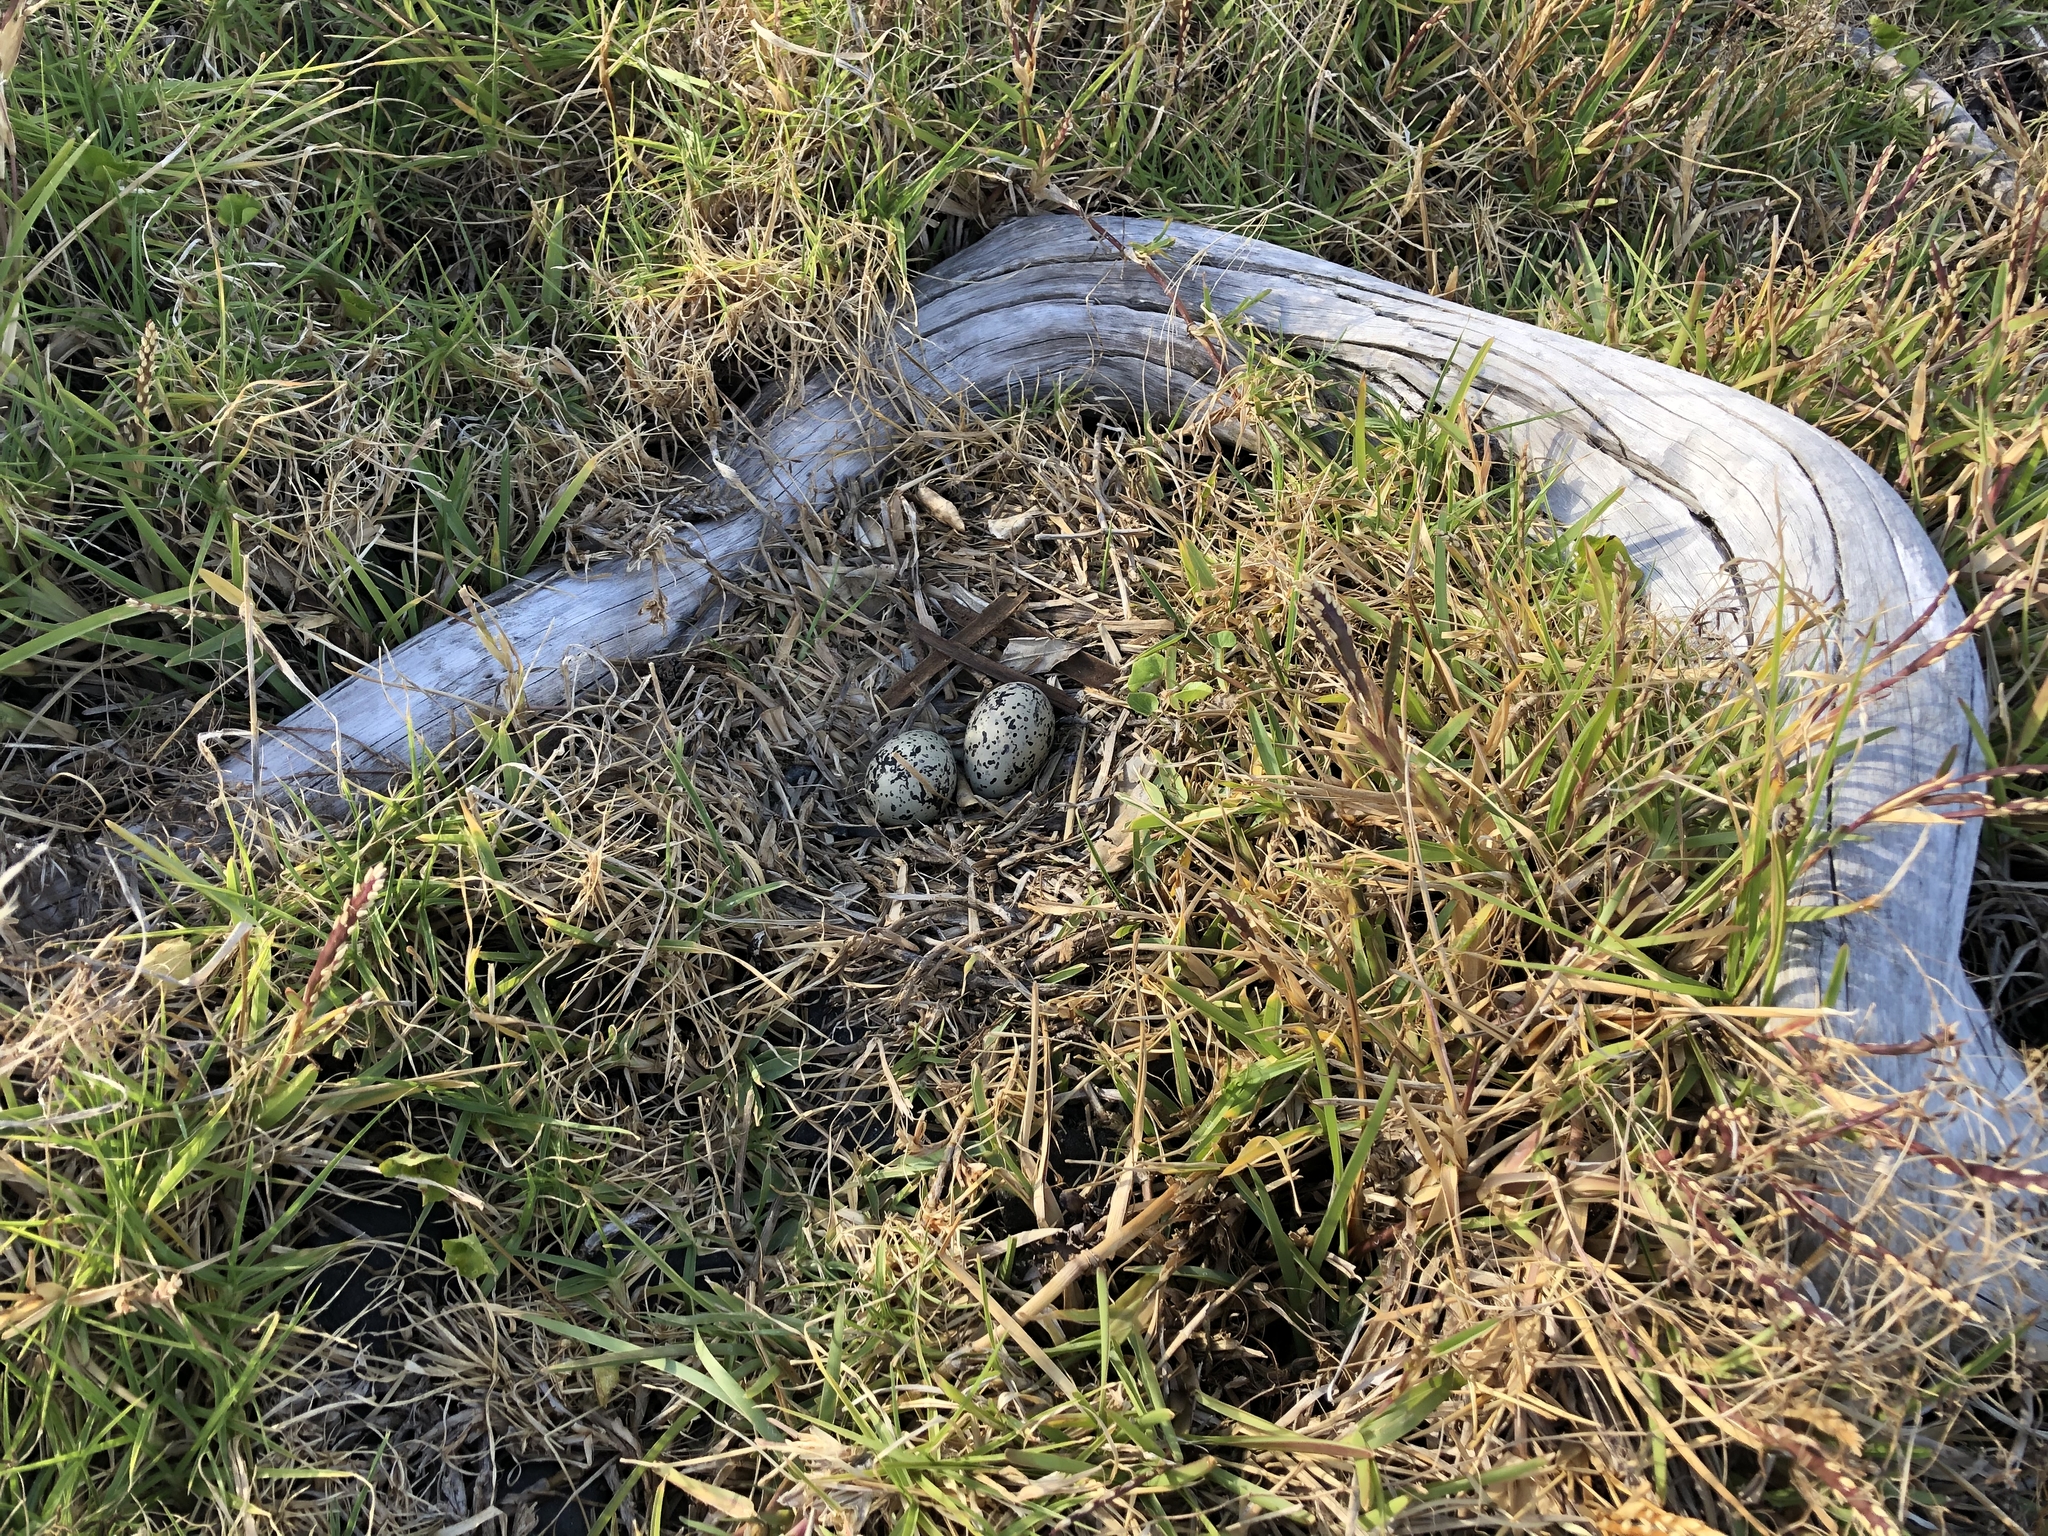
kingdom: Animalia
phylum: Chordata
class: Aves
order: Charadriiformes
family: Haematopodidae
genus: Haematopus
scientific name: Haematopus unicolor
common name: Variable oystercatcher
